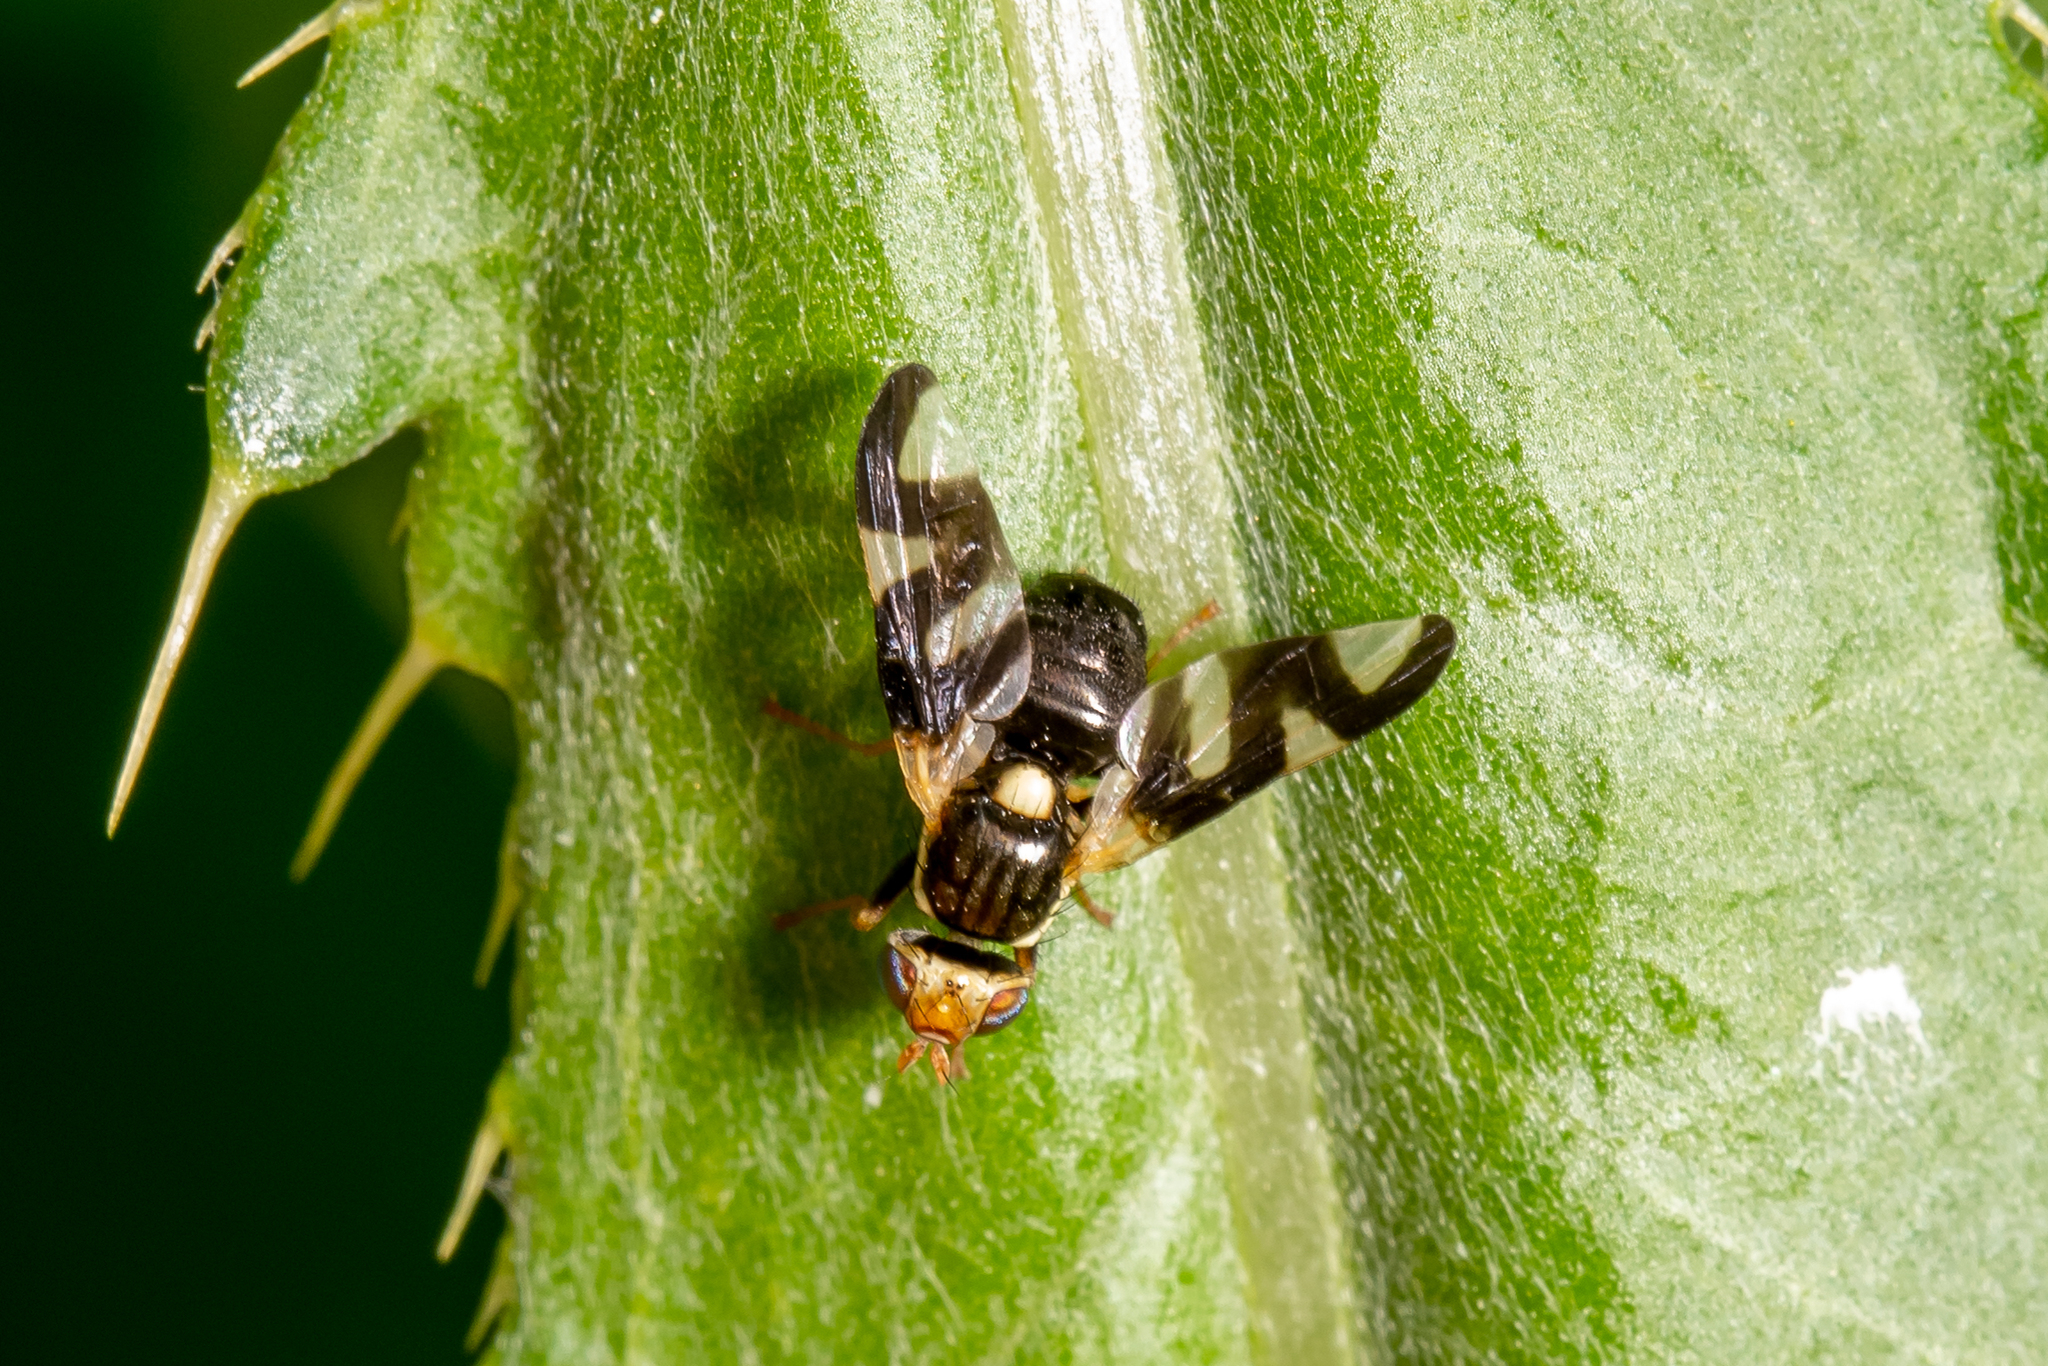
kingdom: Animalia
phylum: Arthropoda
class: Insecta
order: Diptera
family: Tephritidae
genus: Urophora
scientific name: Urophora cardui
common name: Fruit fly
